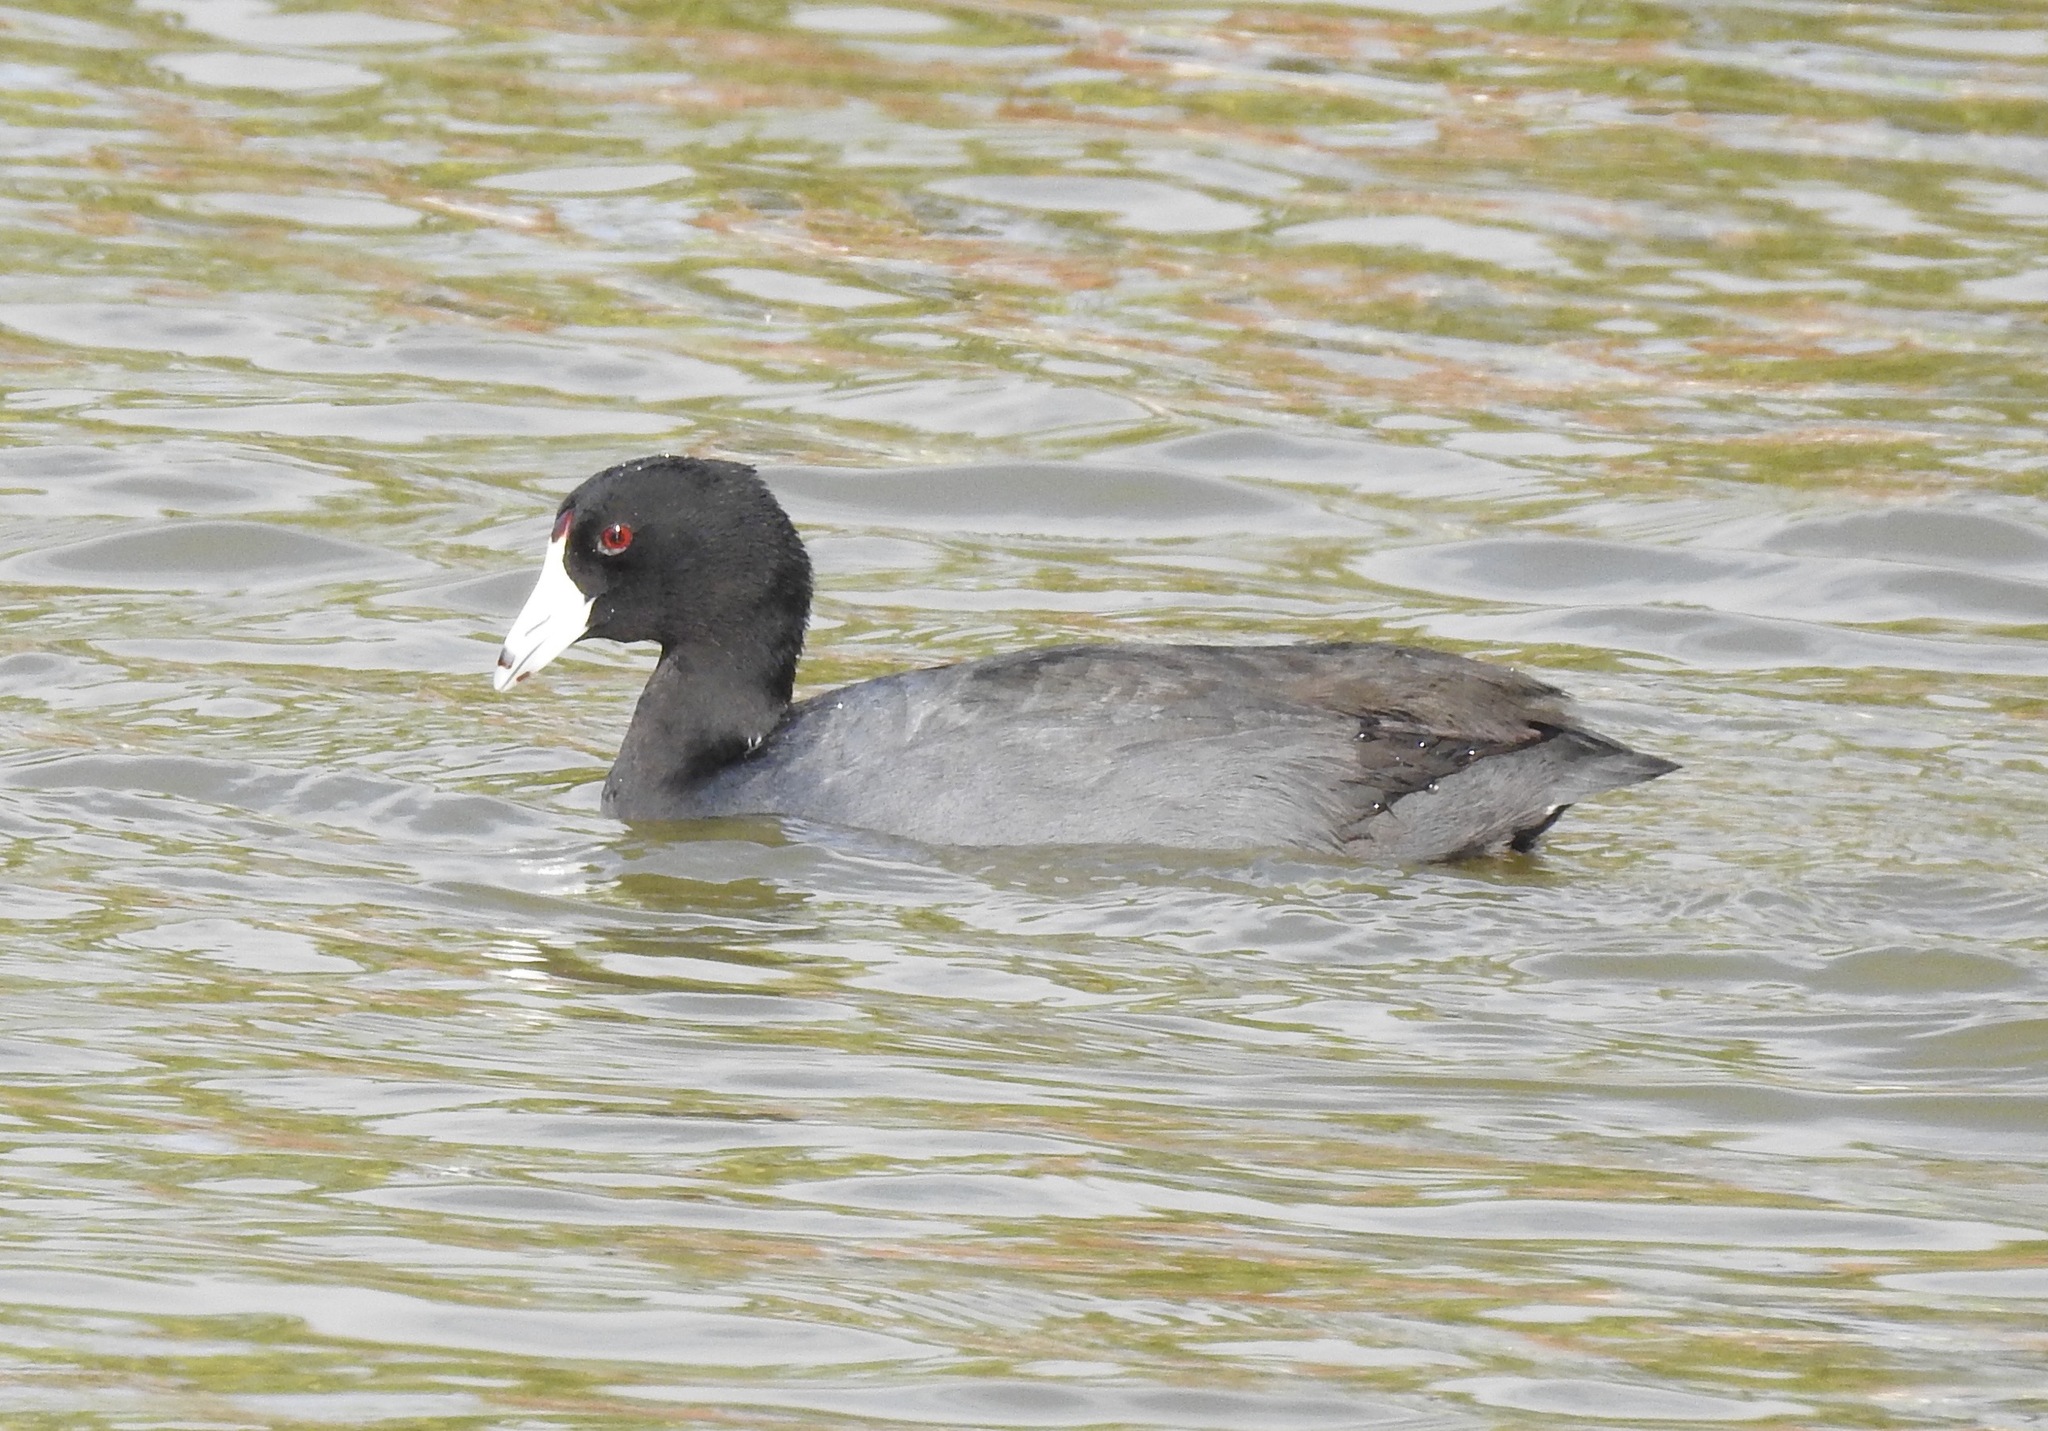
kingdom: Animalia
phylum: Chordata
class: Aves
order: Gruiformes
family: Rallidae
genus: Fulica
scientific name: Fulica americana
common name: American coot
